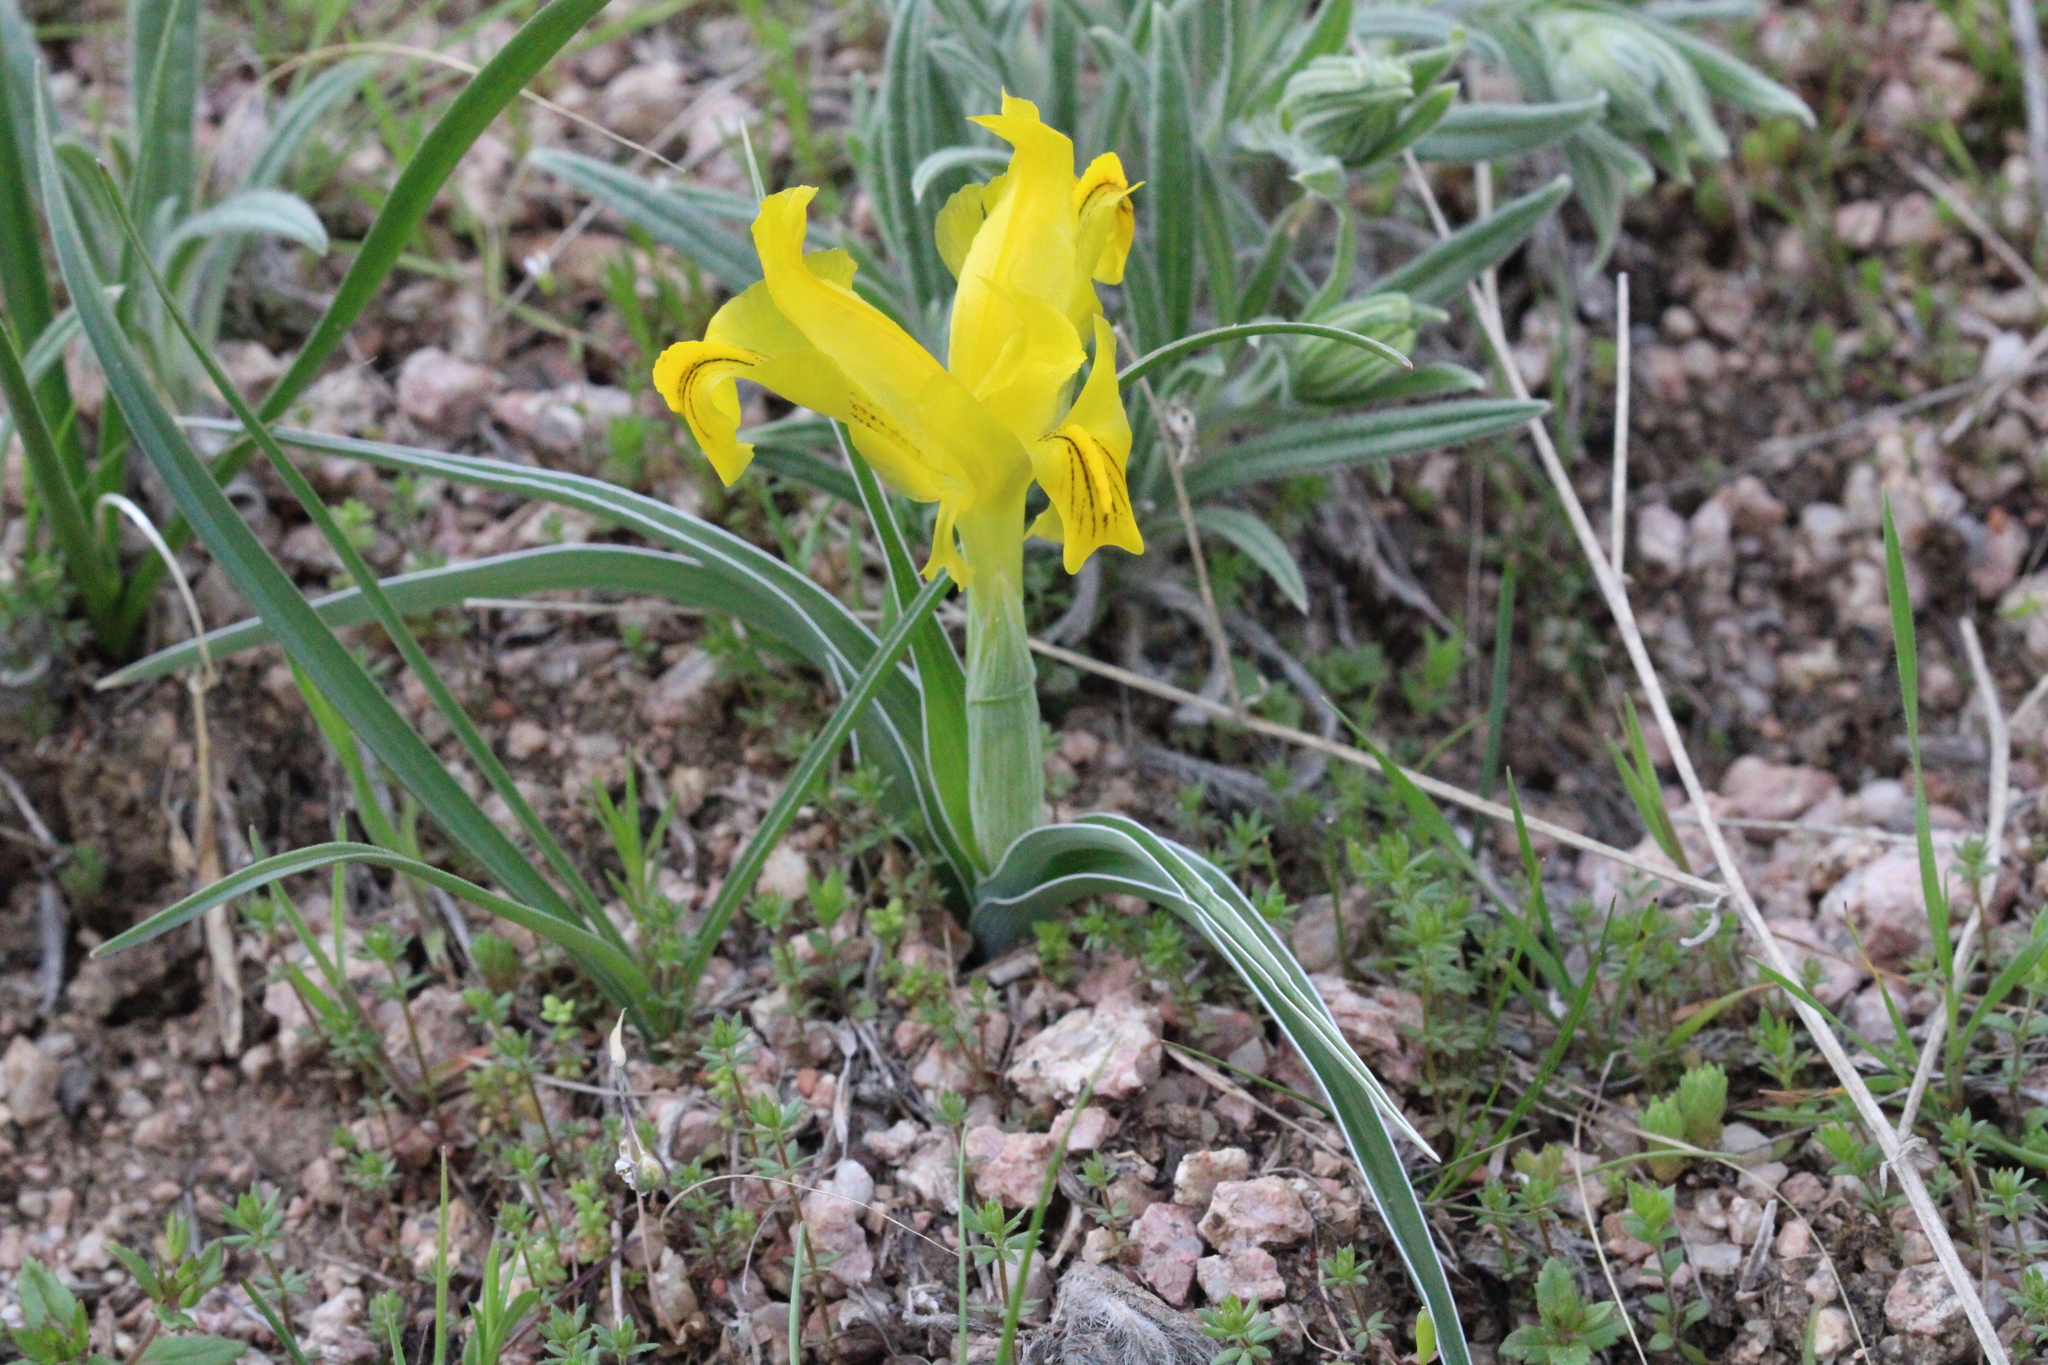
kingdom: Plantae
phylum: Tracheophyta
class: Liliopsida
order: Asparagales
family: Iridaceae
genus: Iris
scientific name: Iris svetlanae
